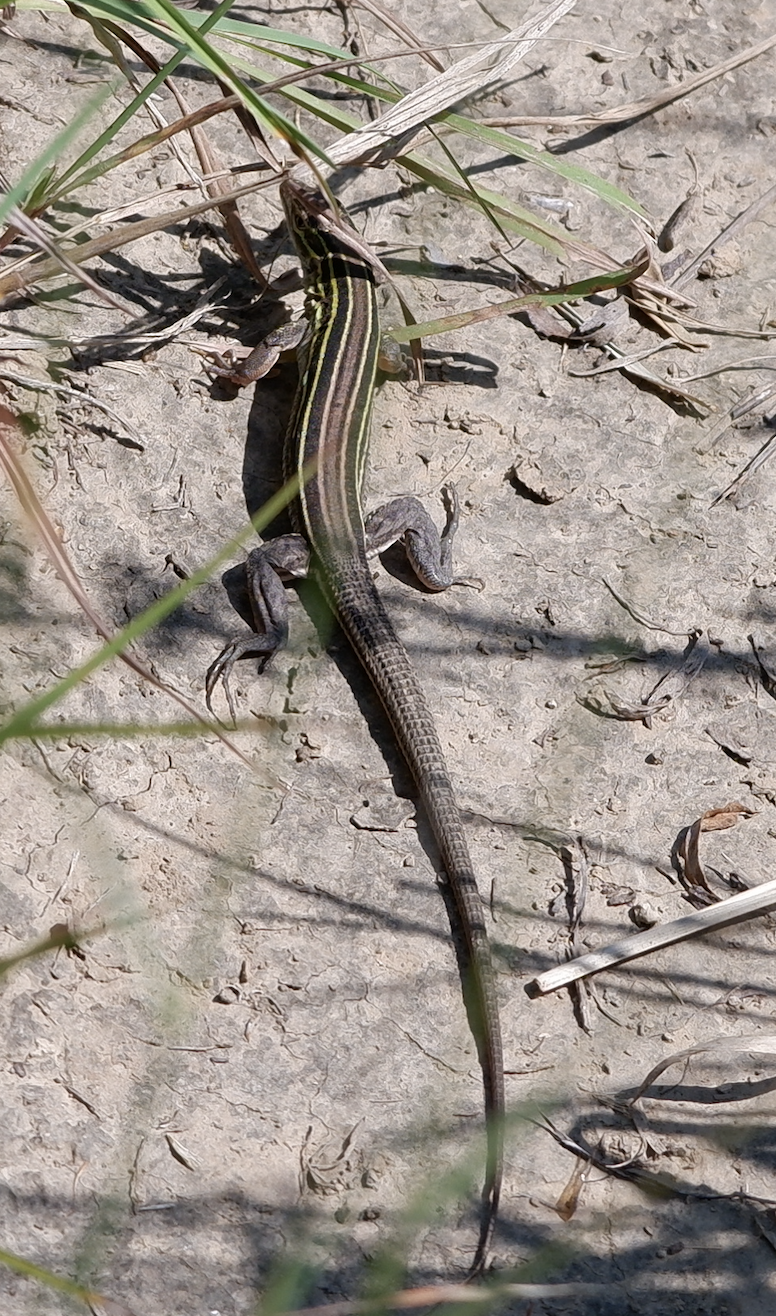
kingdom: Animalia
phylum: Chordata
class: Squamata
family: Teiidae
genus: Aspidoscelis
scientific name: Aspidoscelis sexlineatus
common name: Six-lined racerunner
